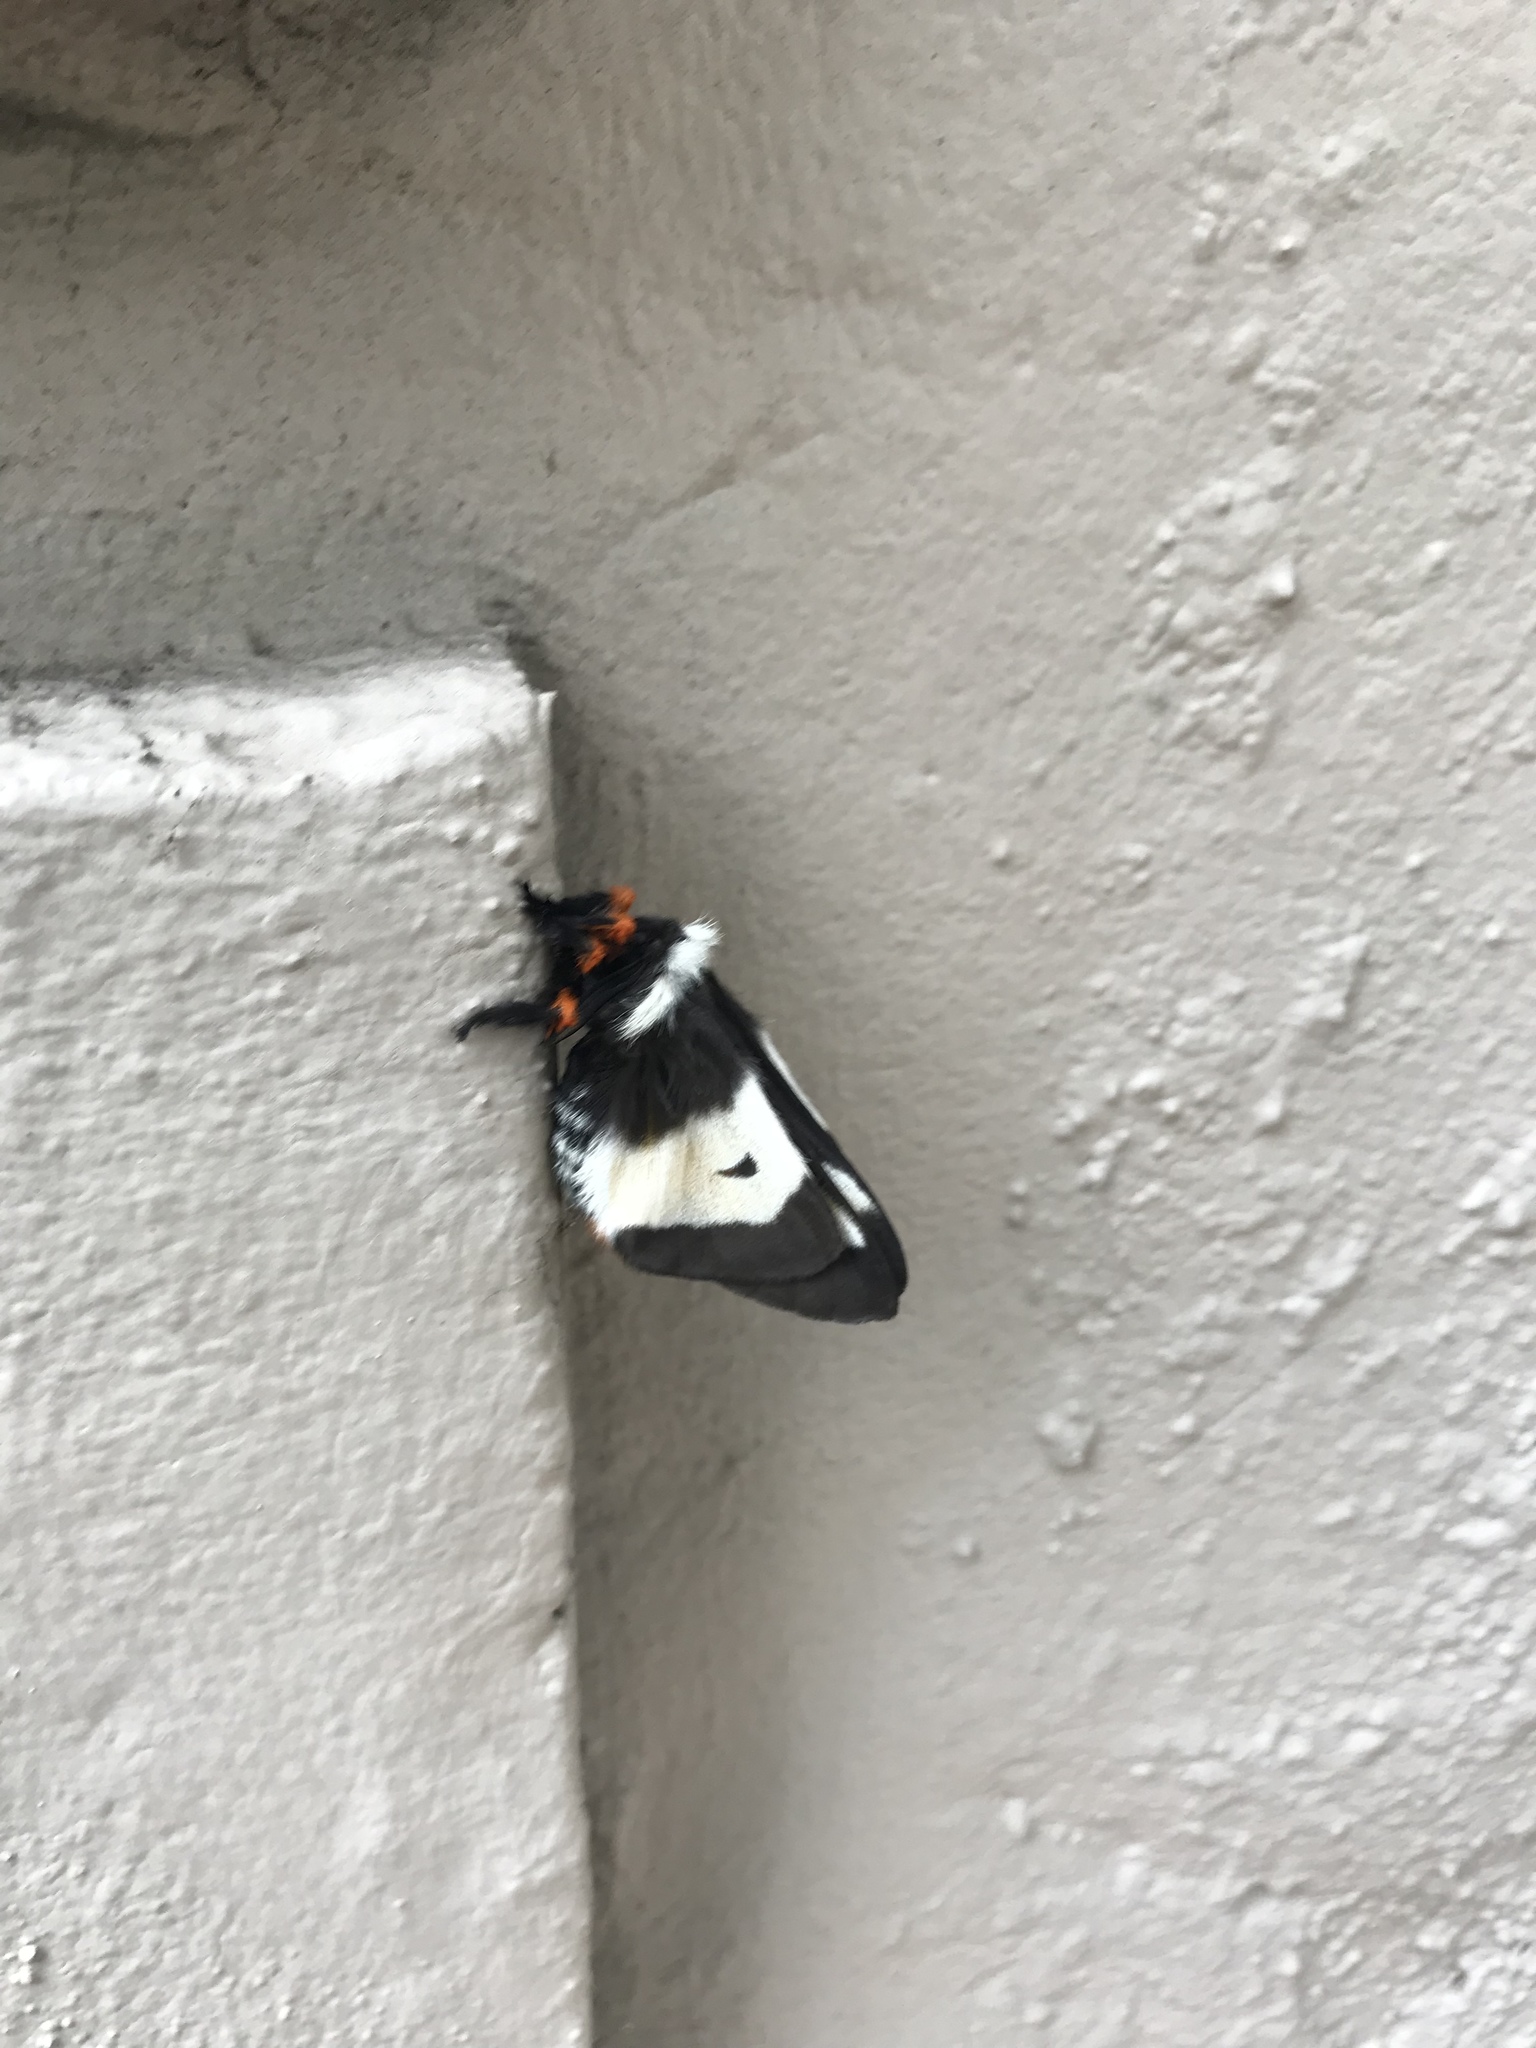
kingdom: Animalia
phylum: Arthropoda
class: Insecta
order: Lepidoptera
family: Saturniidae
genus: Hemileuca
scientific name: Hemileuca maia
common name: Eastern buckmoth
